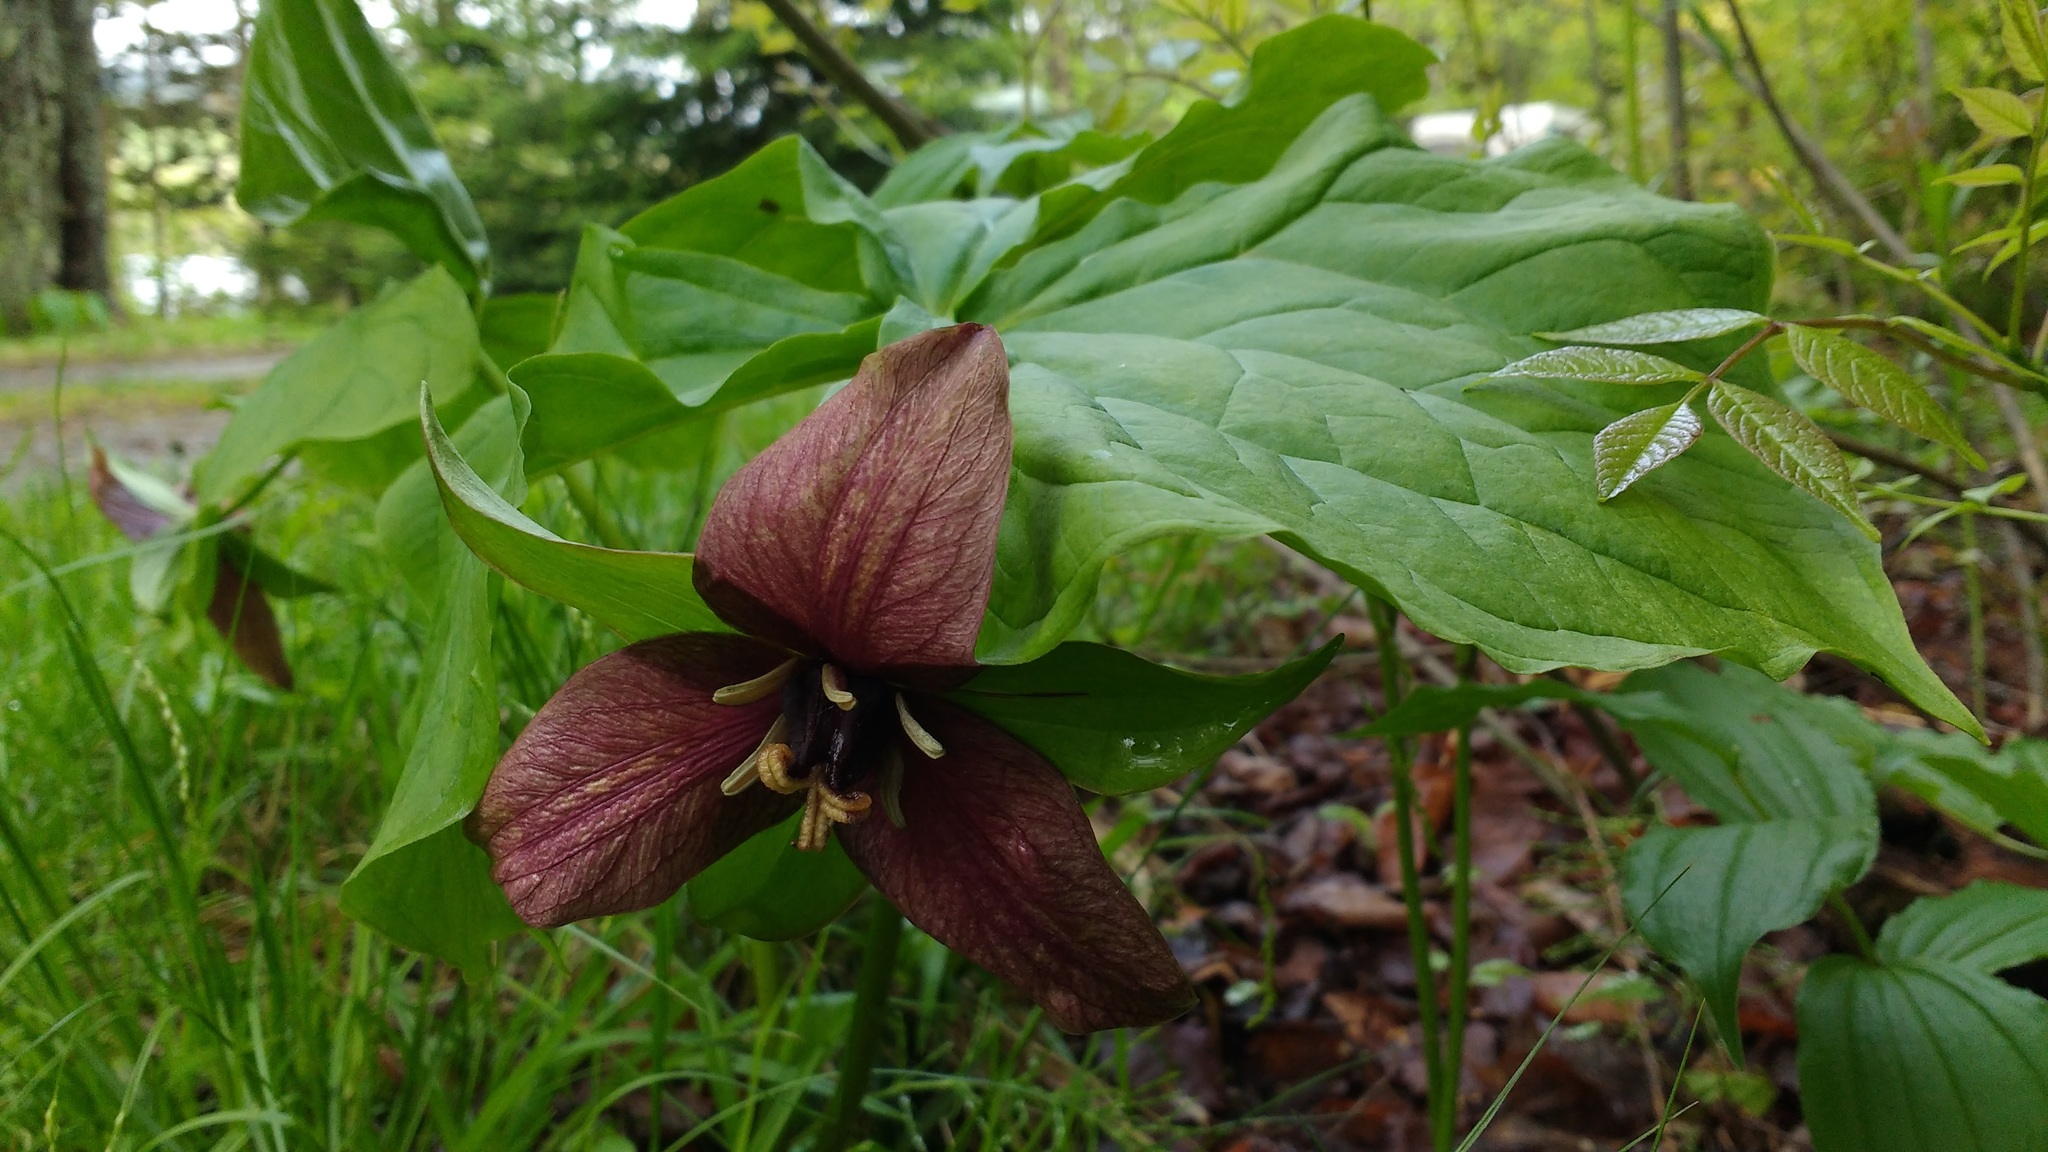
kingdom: Plantae
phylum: Tracheophyta
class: Liliopsida
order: Liliales
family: Melanthiaceae
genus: Trillium
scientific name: Trillium erectum
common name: Purple trillium
